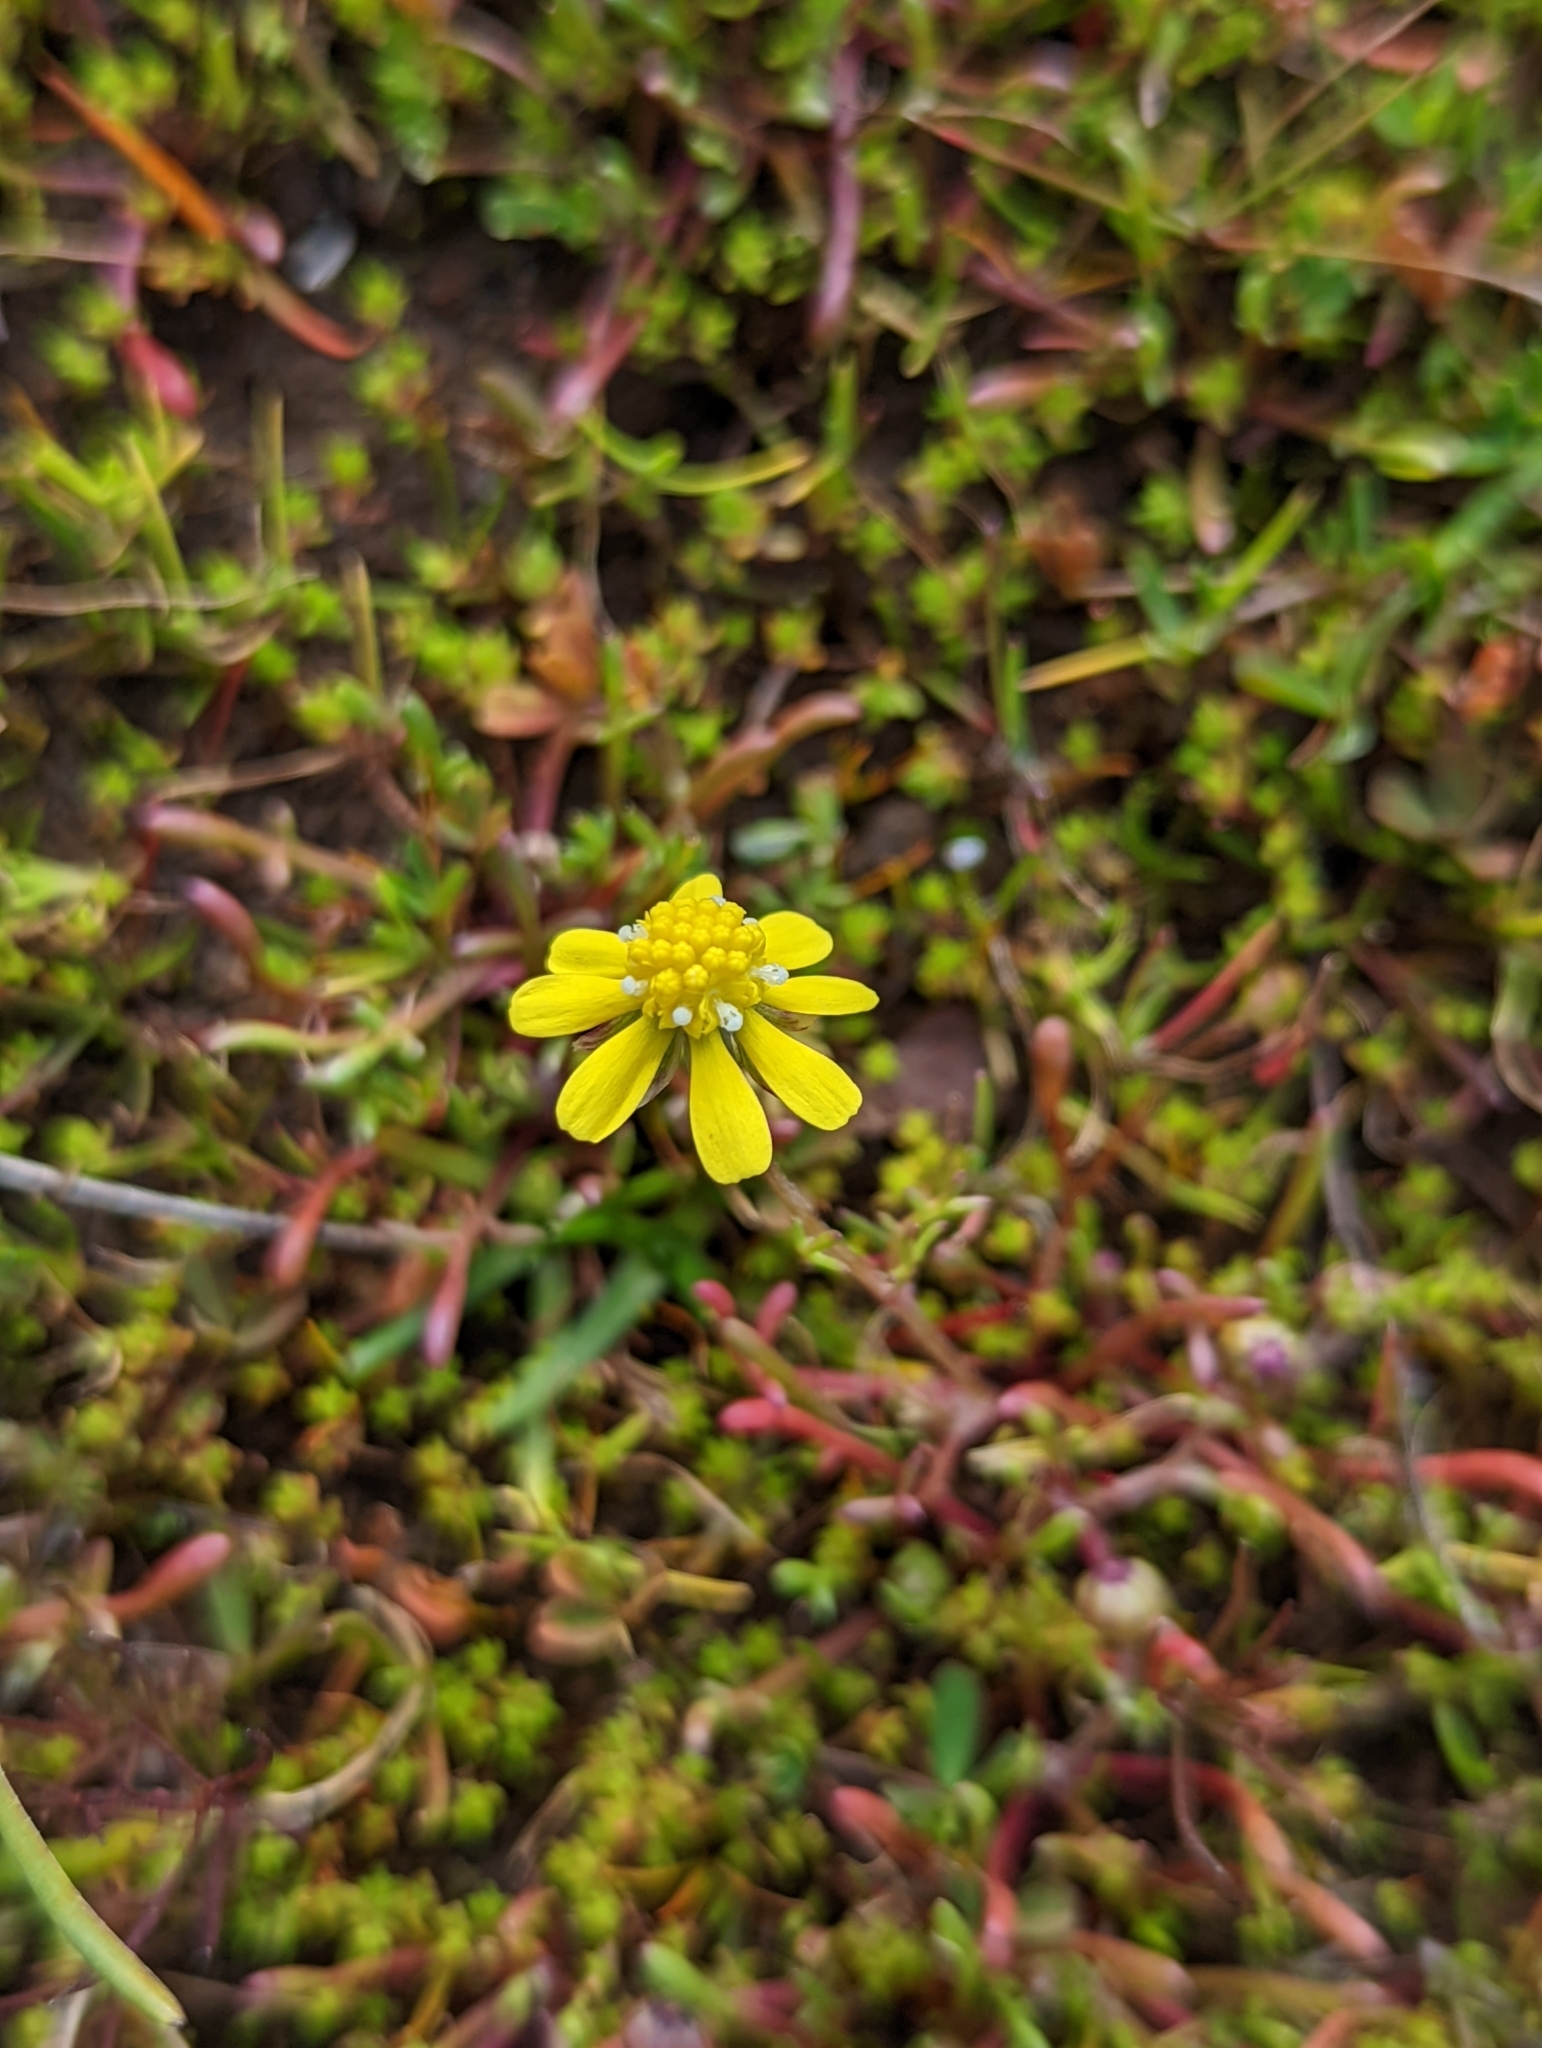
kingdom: Plantae
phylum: Tracheophyta
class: Magnoliopsida
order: Asterales
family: Asteraceae
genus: Blennosperma
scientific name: Blennosperma nanum
